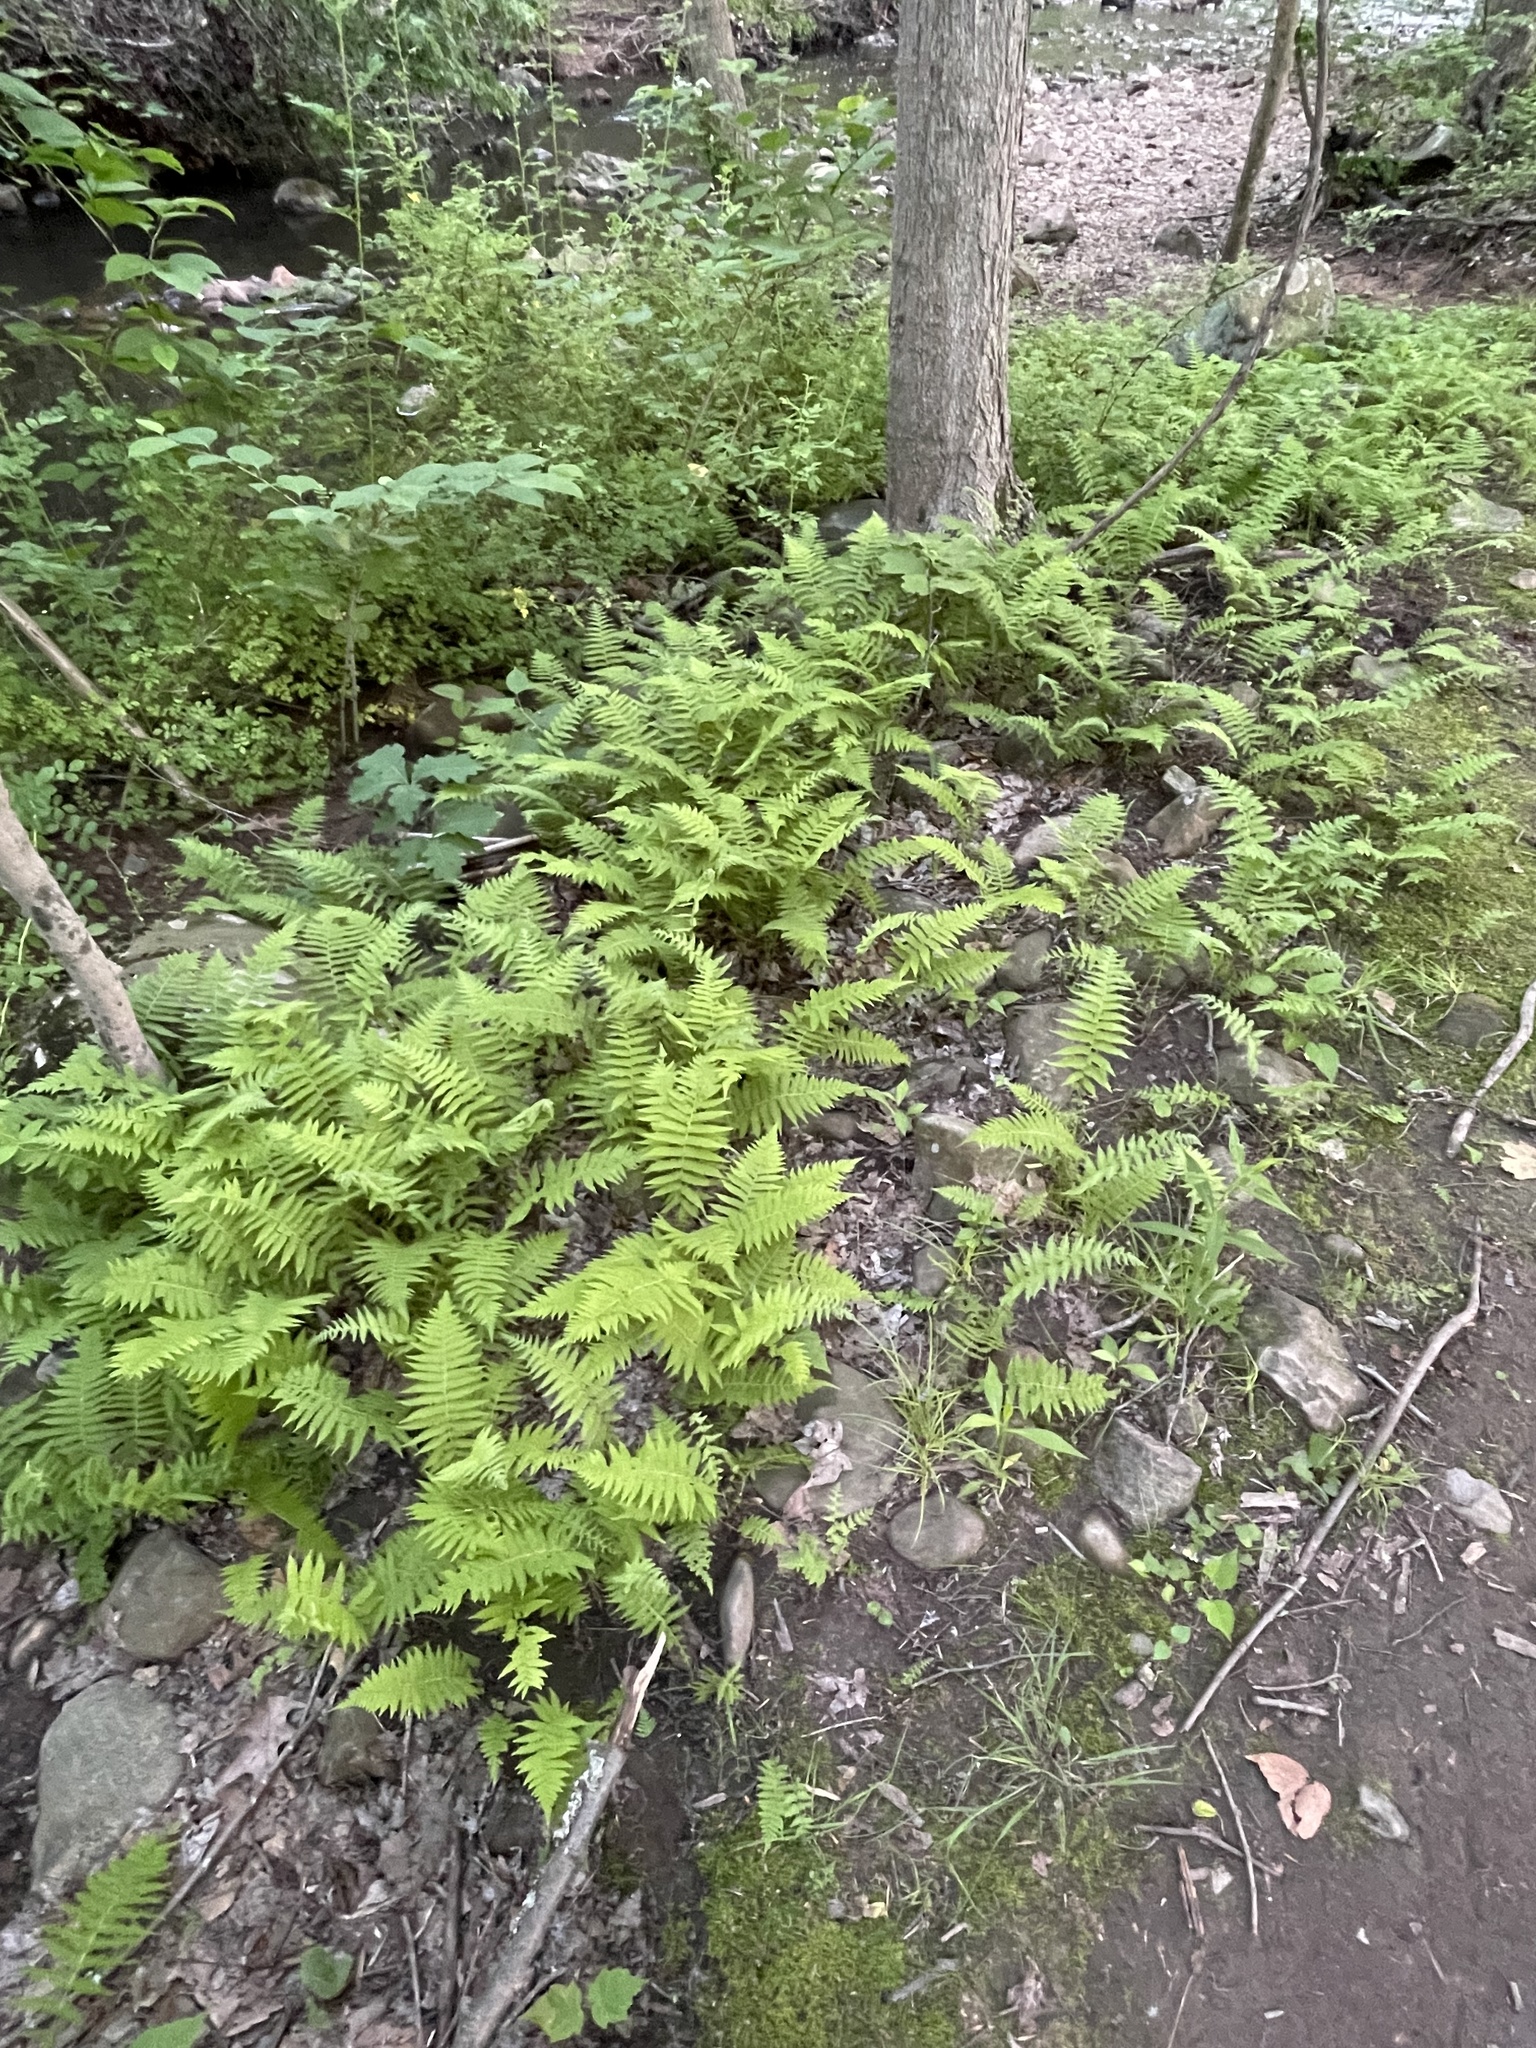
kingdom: Plantae
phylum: Tracheophyta
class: Polypodiopsida
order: Polypodiales
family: Thelypteridaceae
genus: Amauropelta
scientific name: Amauropelta noveboracensis
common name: New york fern
